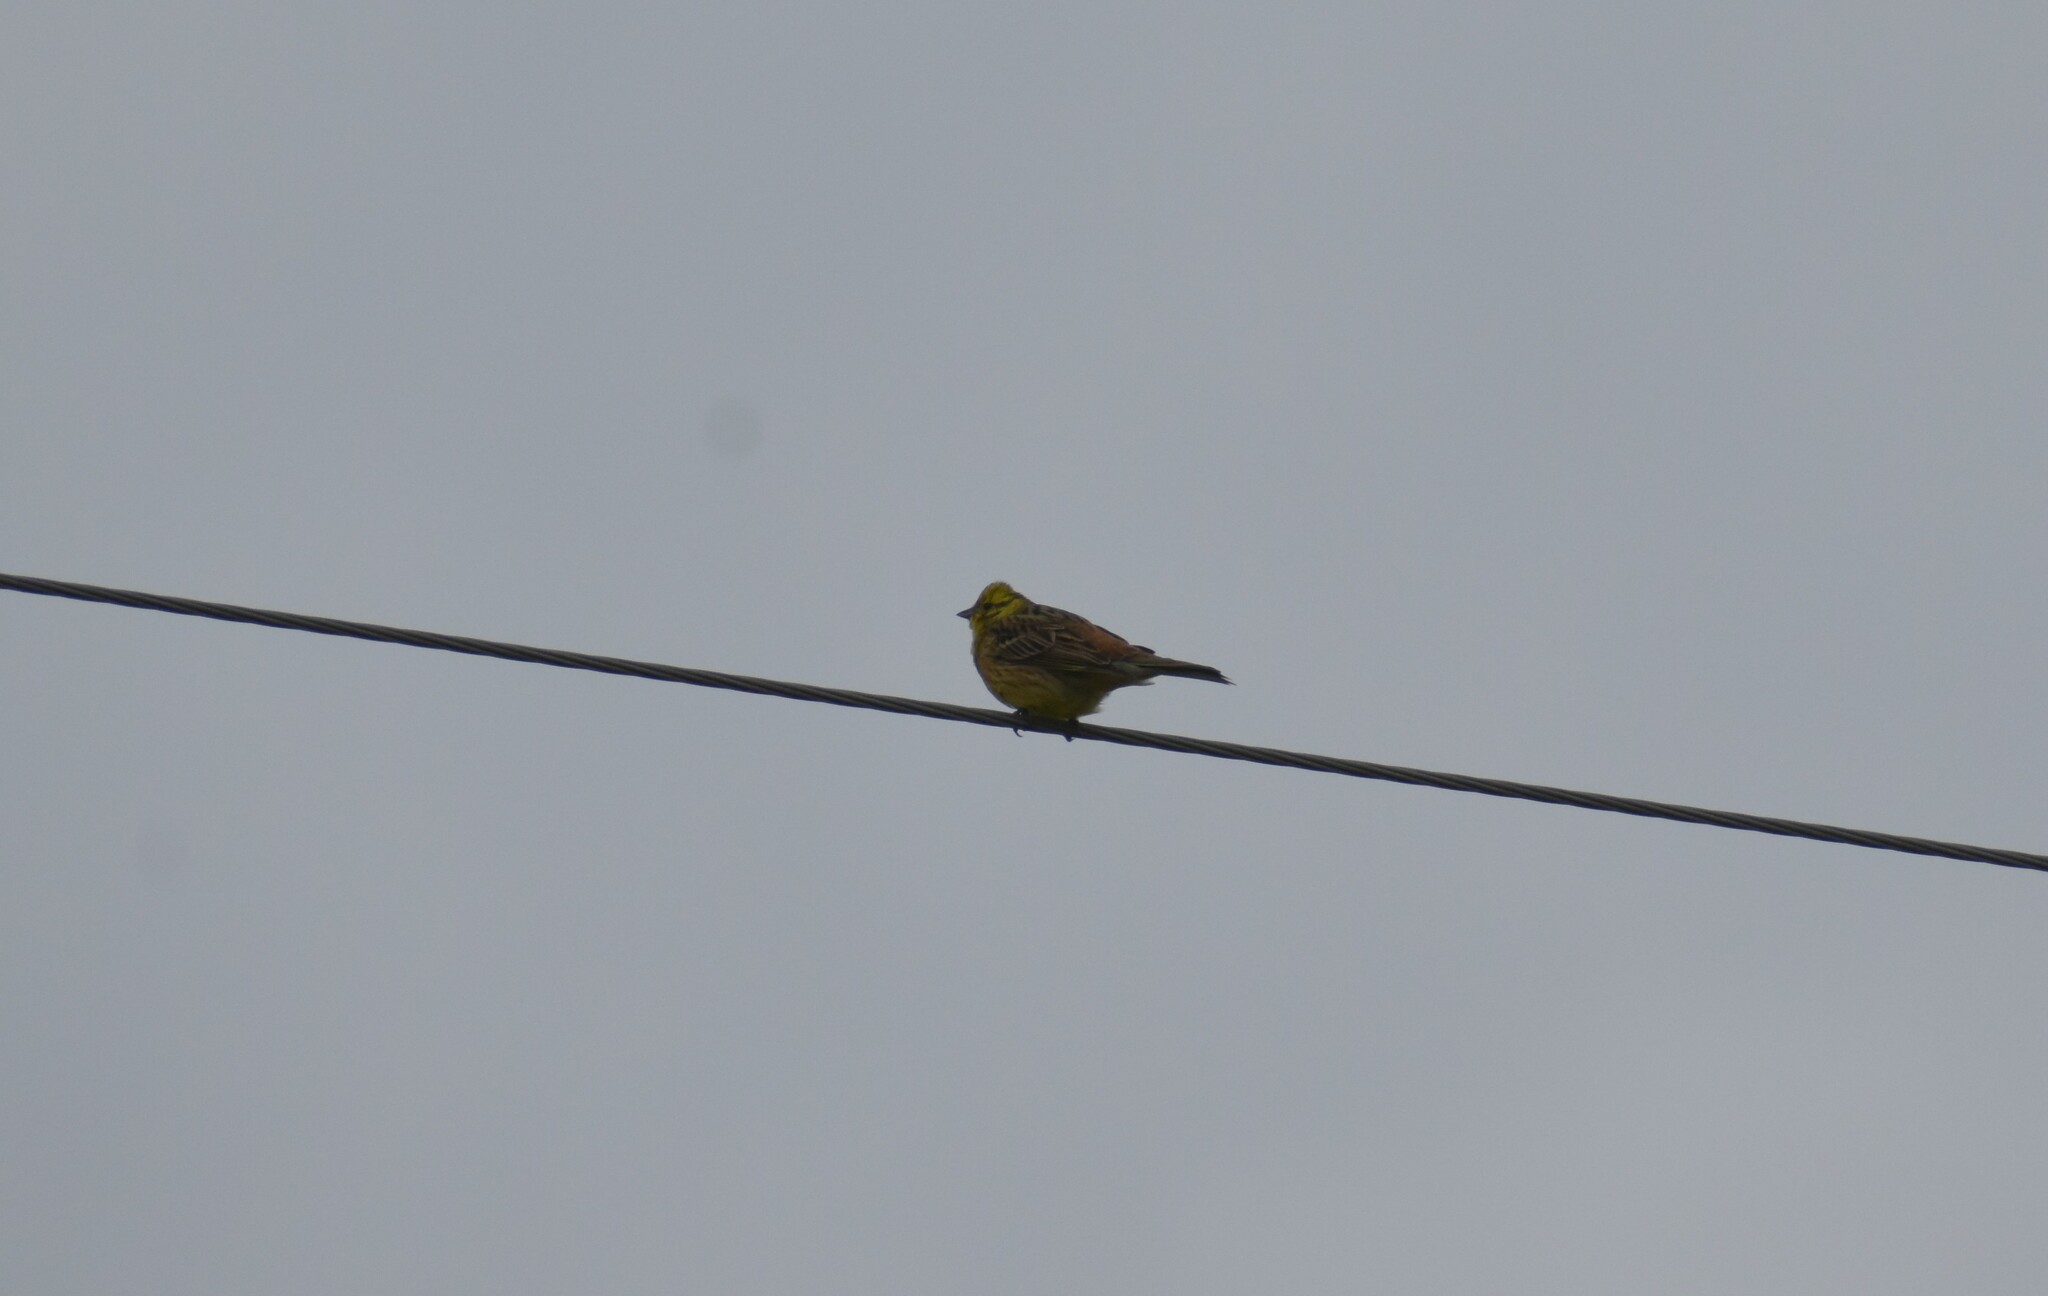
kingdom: Animalia
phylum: Chordata
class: Aves
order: Passeriformes
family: Emberizidae
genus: Emberiza
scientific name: Emberiza citrinella
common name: Yellowhammer
